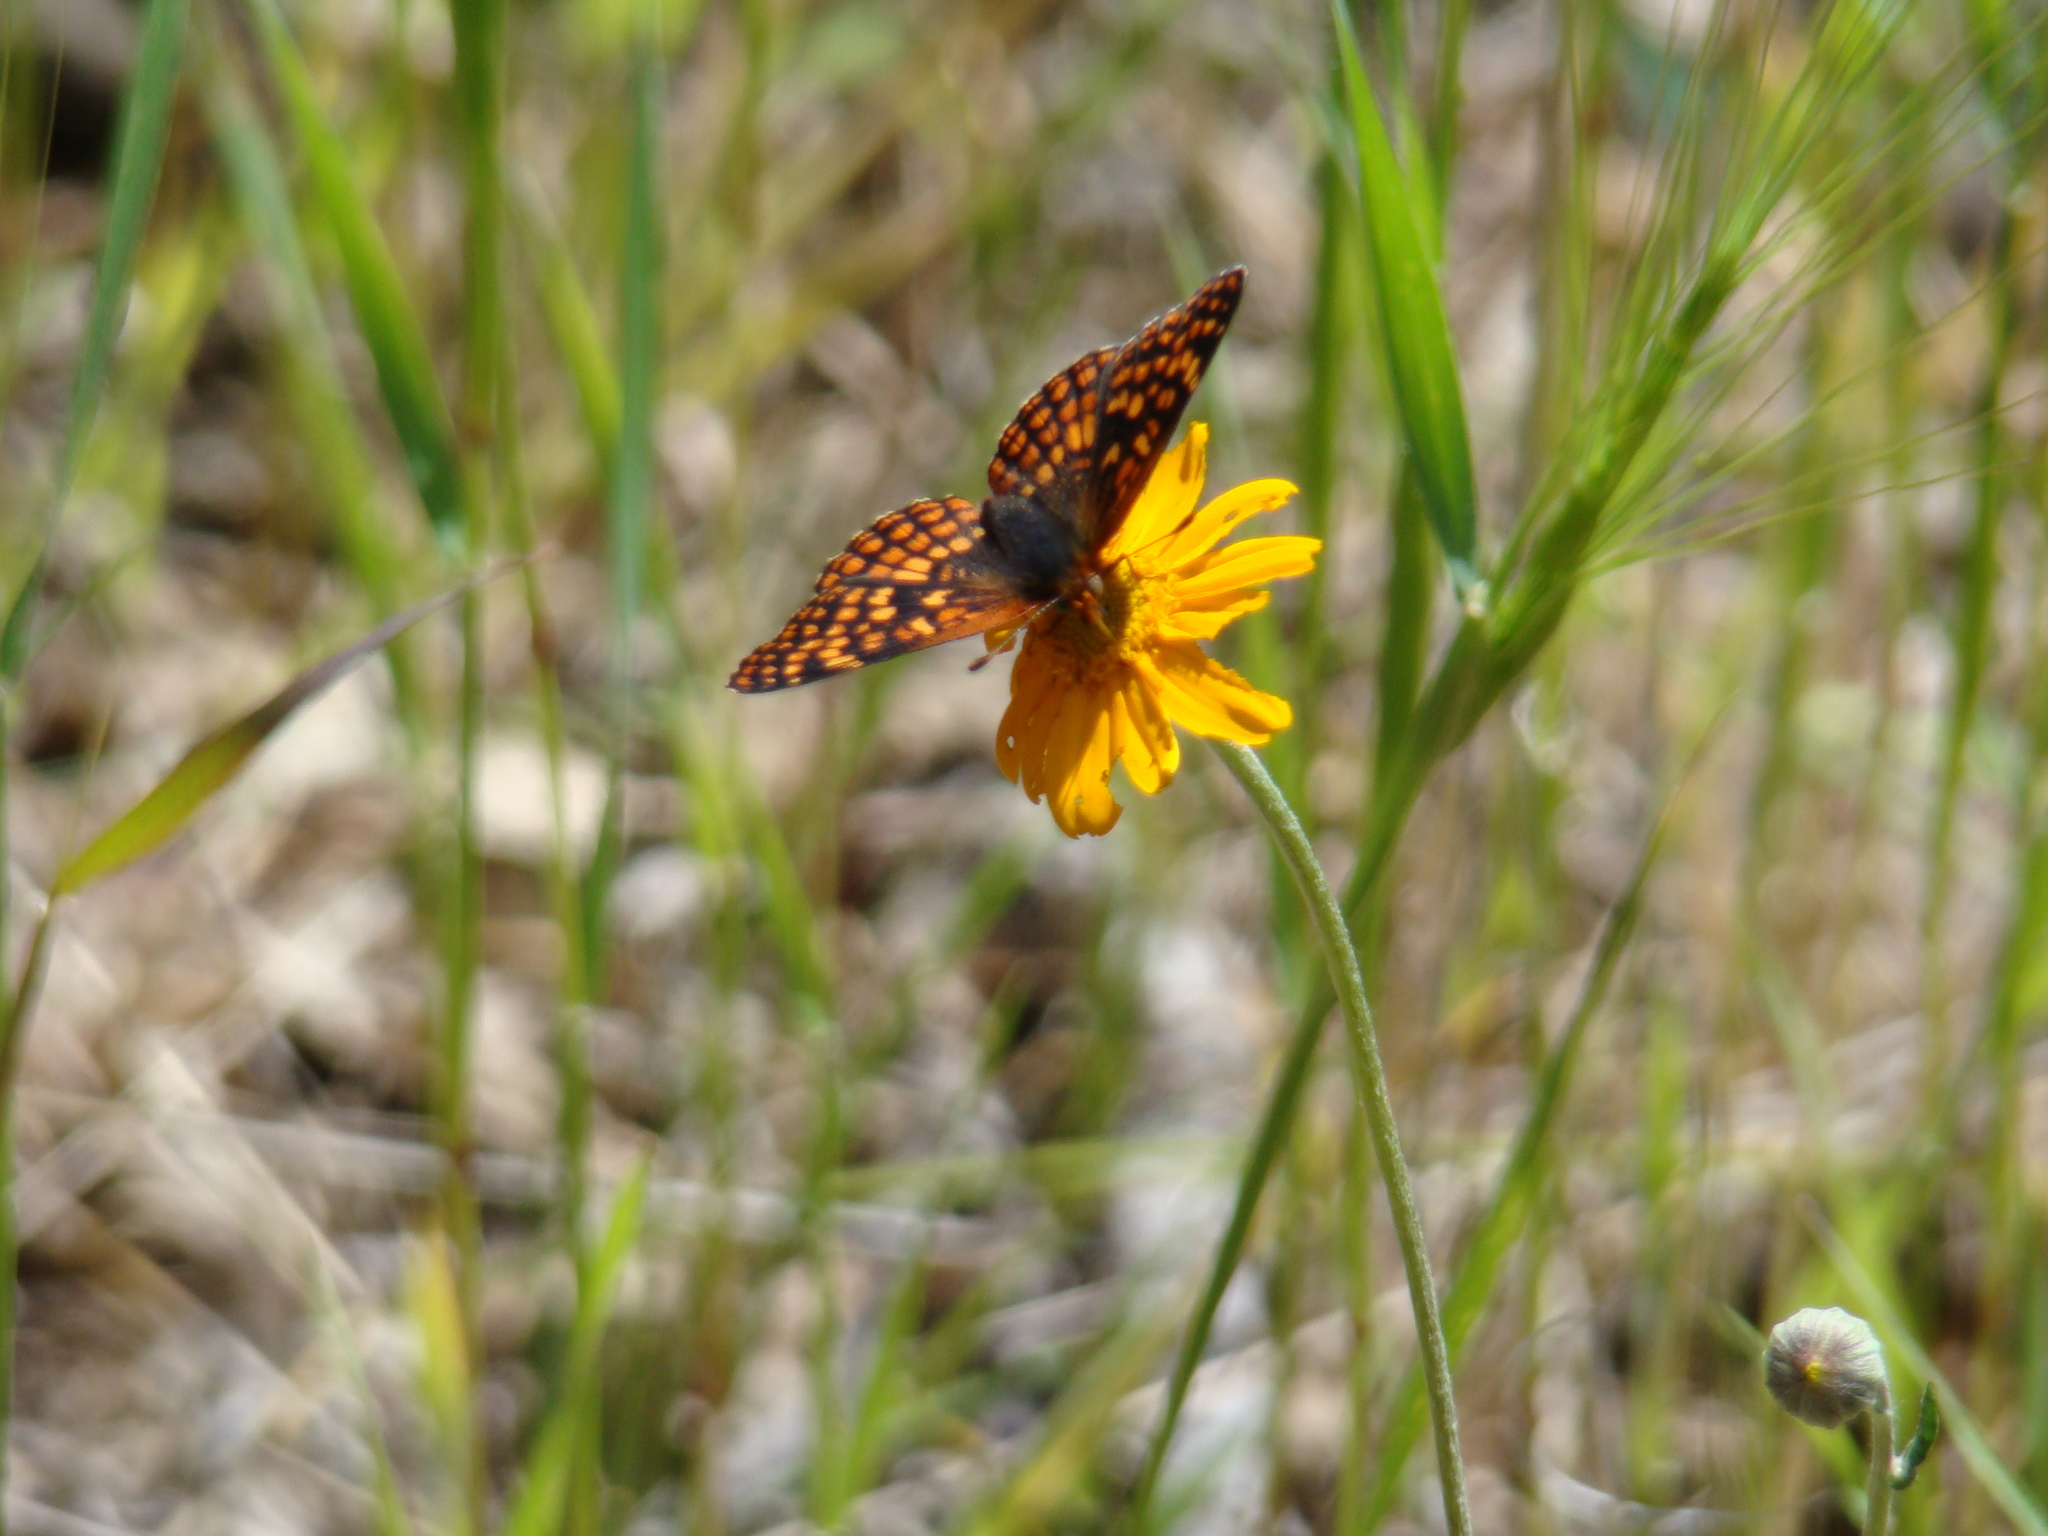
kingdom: Animalia
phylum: Arthropoda
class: Insecta
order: Lepidoptera
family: Nymphalidae
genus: Chlosyne
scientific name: Chlosyne palla
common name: Northern checkerspot
